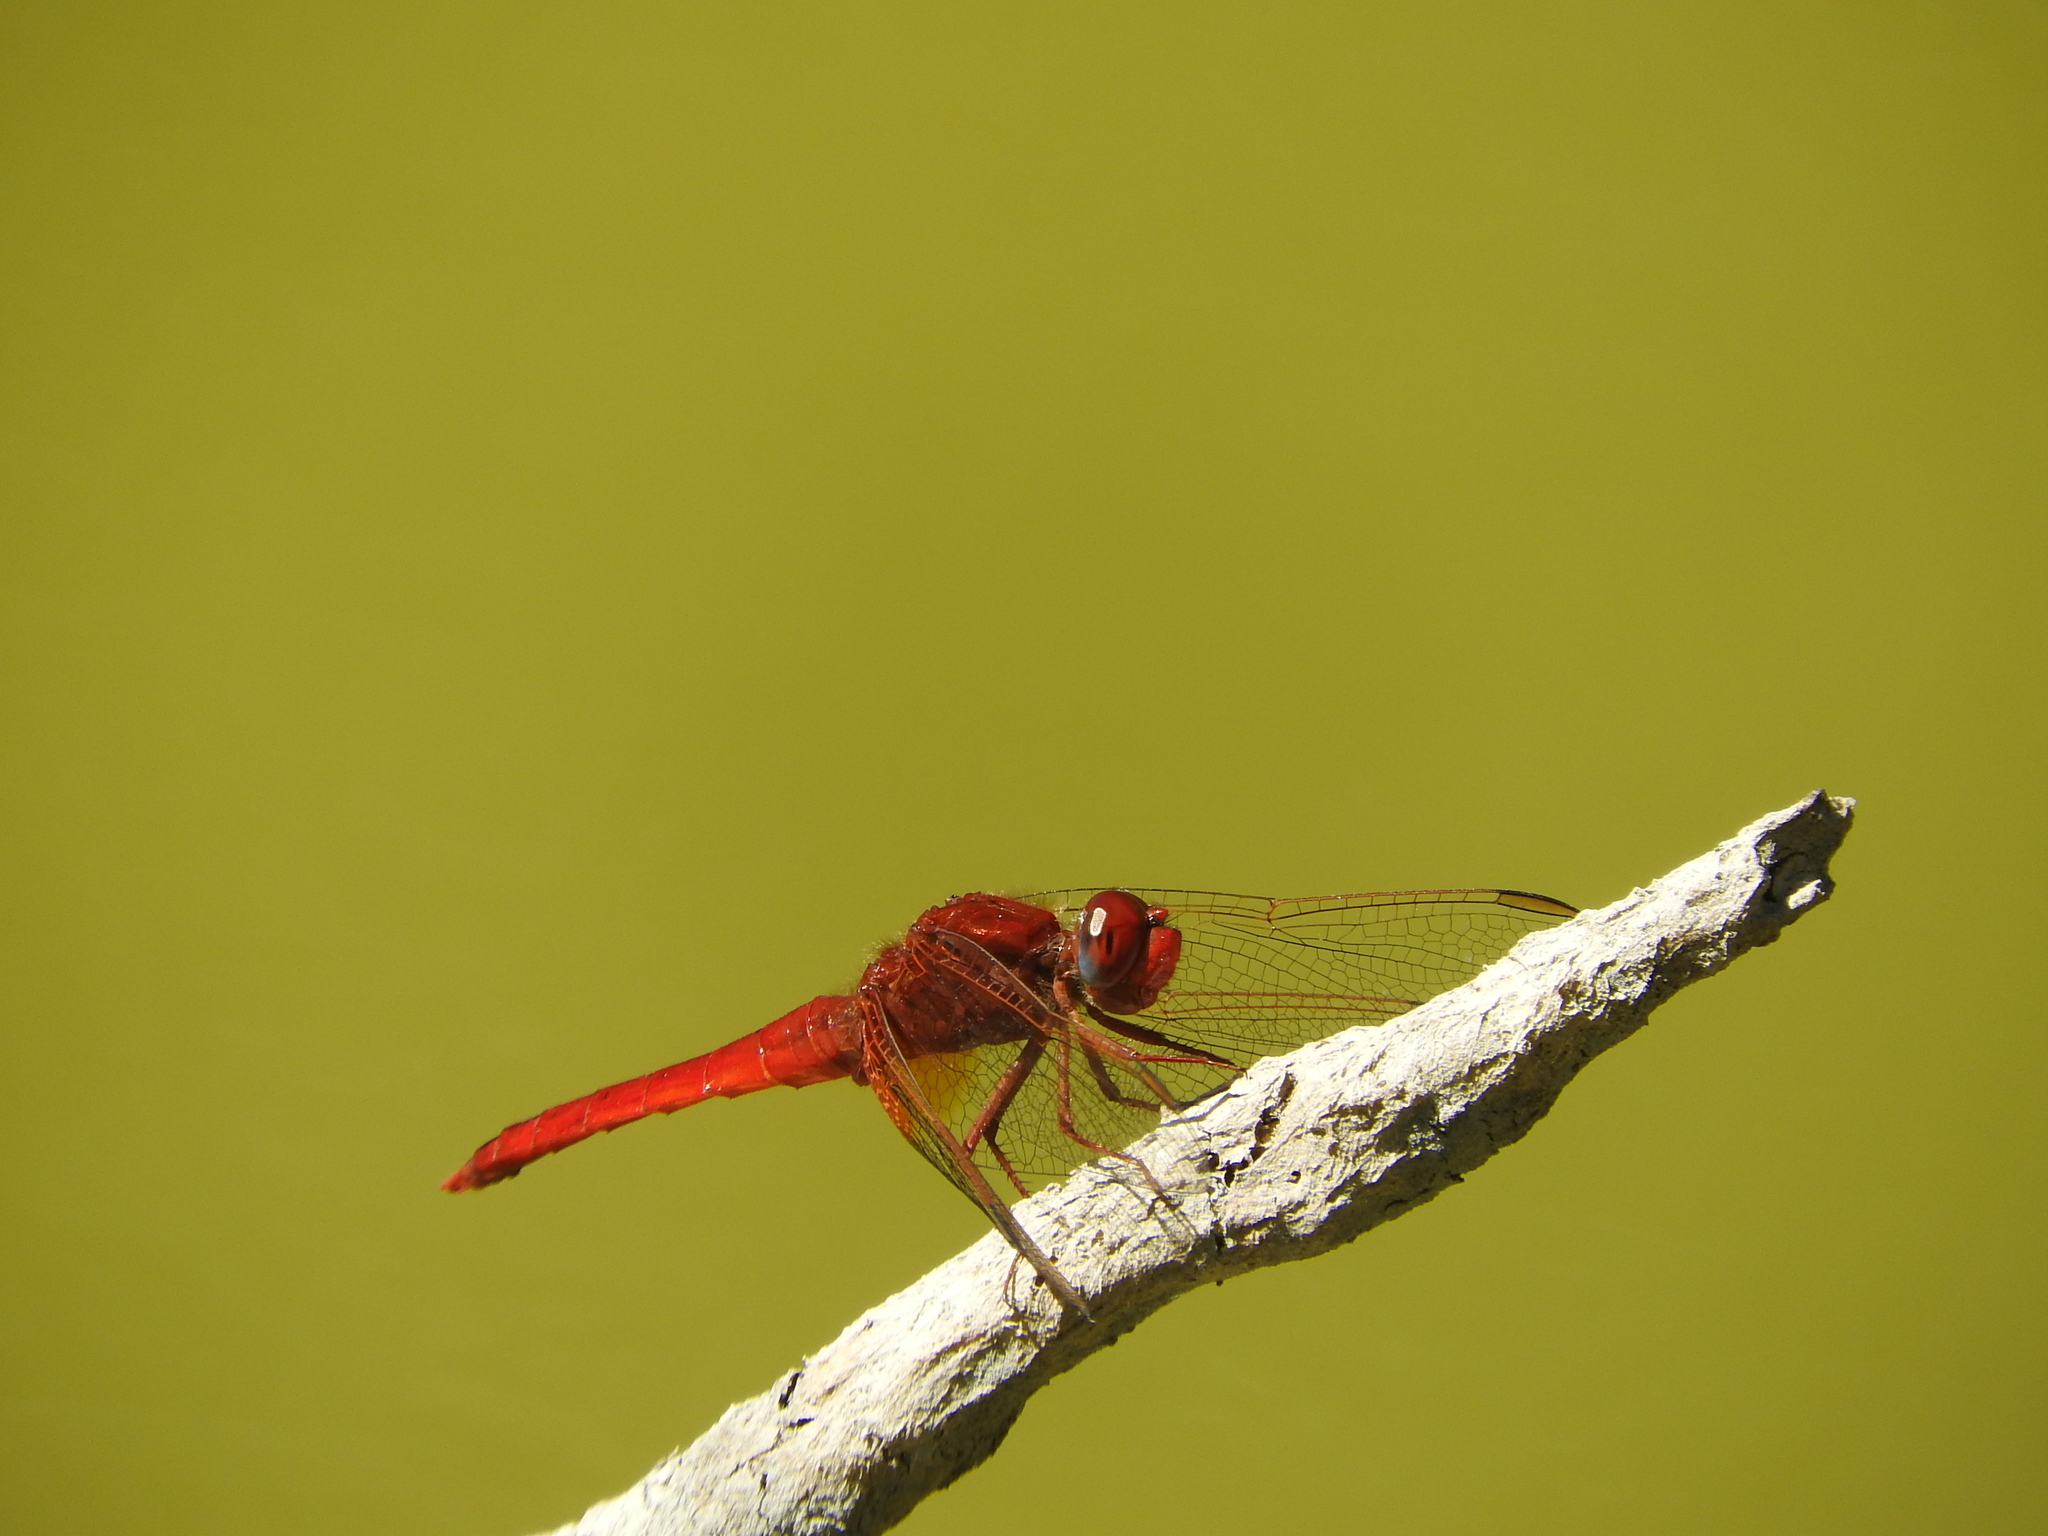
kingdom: Animalia
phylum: Arthropoda
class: Insecta
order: Odonata
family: Libellulidae
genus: Crocothemis
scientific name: Crocothemis erythraea
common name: Scarlet dragonfly
